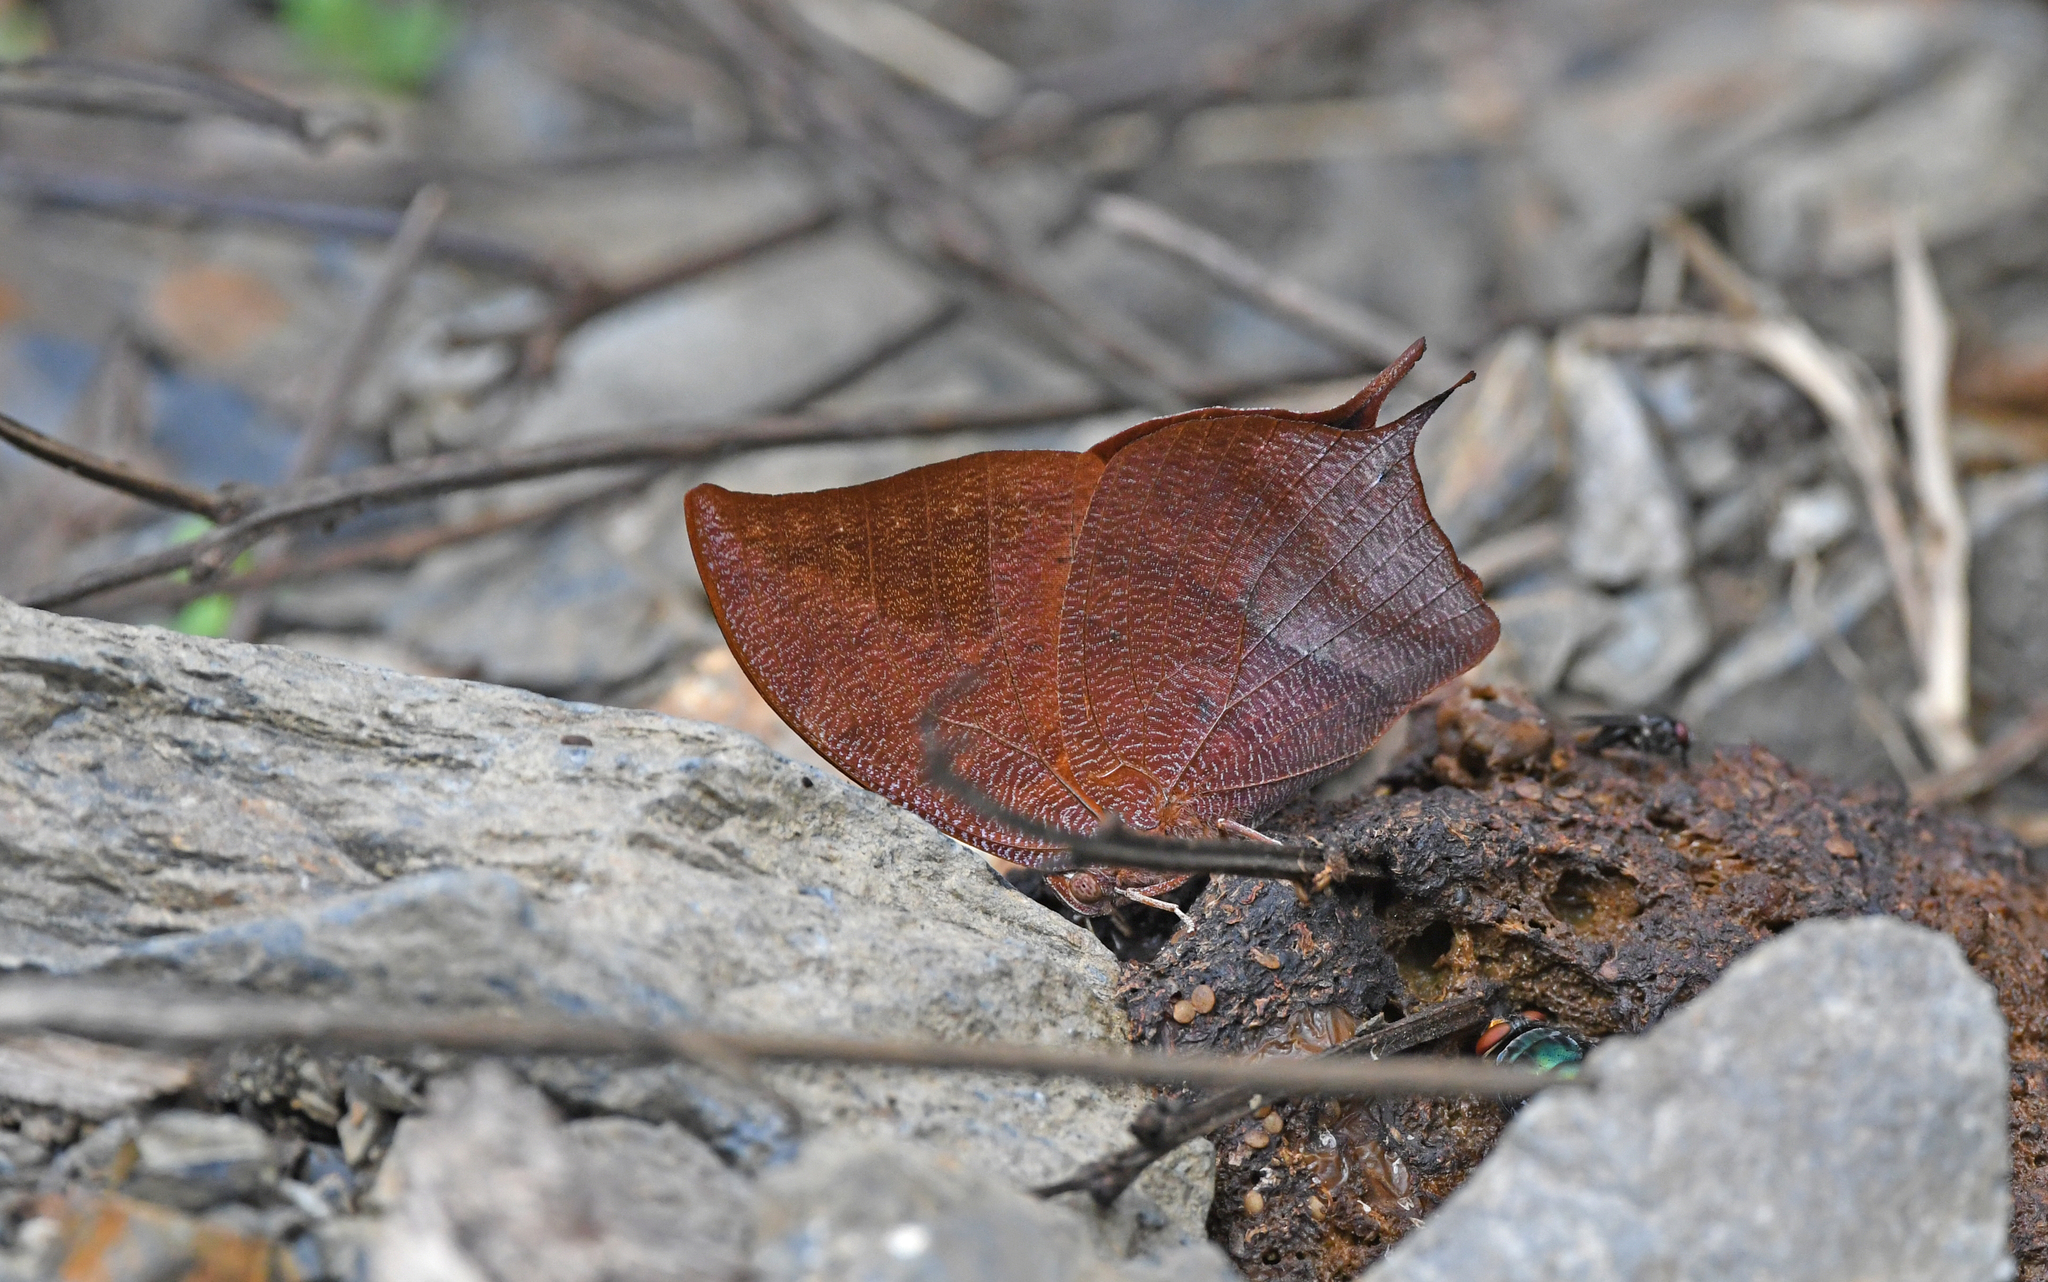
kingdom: Animalia
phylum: Arthropoda
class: Insecta
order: Lepidoptera
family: Nymphalidae
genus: Fountainea
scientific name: Fountainea
